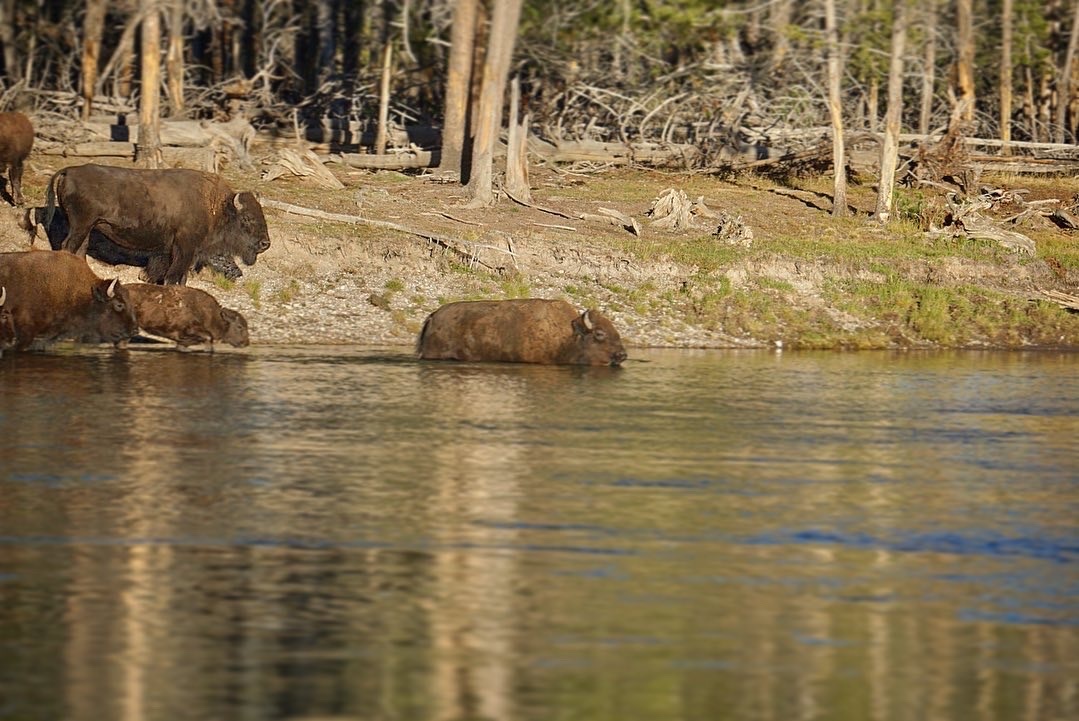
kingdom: Animalia
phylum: Chordata
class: Mammalia
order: Artiodactyla
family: Bovidae
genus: Bison
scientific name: Bison bison
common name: American bison
